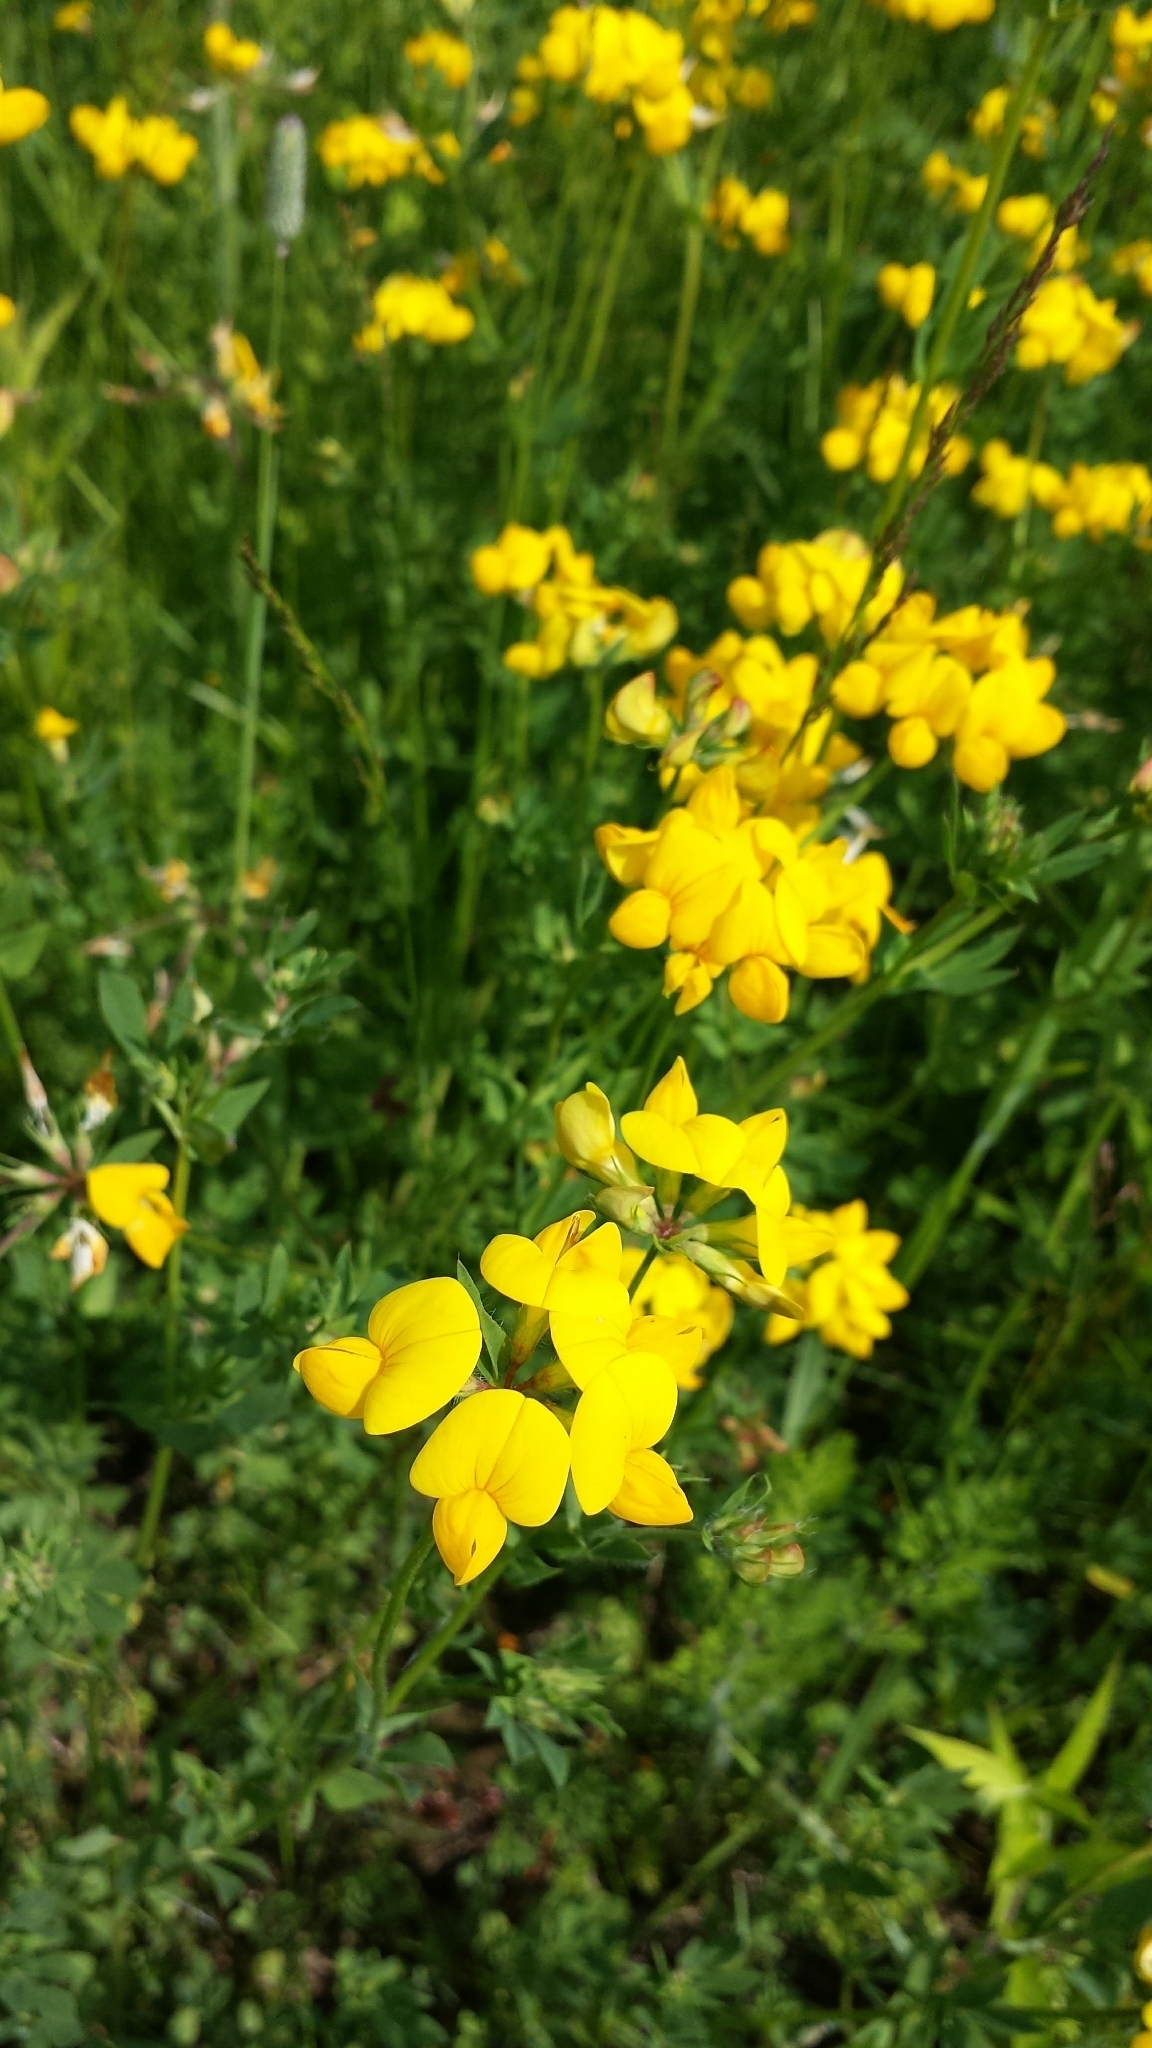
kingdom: Plantae
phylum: Tracheophyta
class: Magnoliopsida
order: Fabales
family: Fabaceae
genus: Lotus
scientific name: Lotus corniculatus
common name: Common bird's-foot-trefoil
